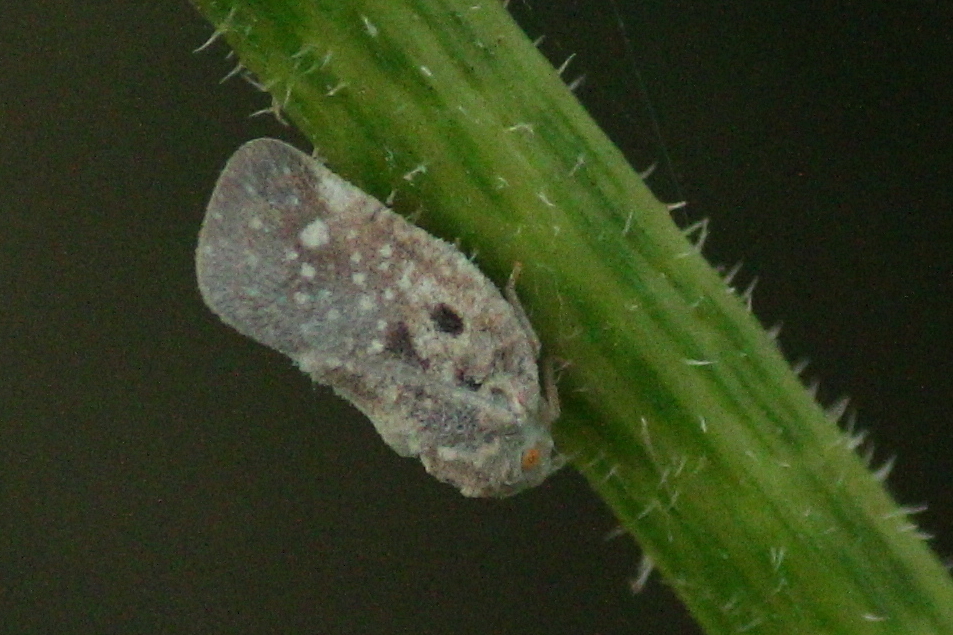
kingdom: Animalia
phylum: Arthropoda
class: Insecta
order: Hemiptera
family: Flatidae
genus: Metcalfa
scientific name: Metcalfa pruinosa
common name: Citrus flatid planthopper
